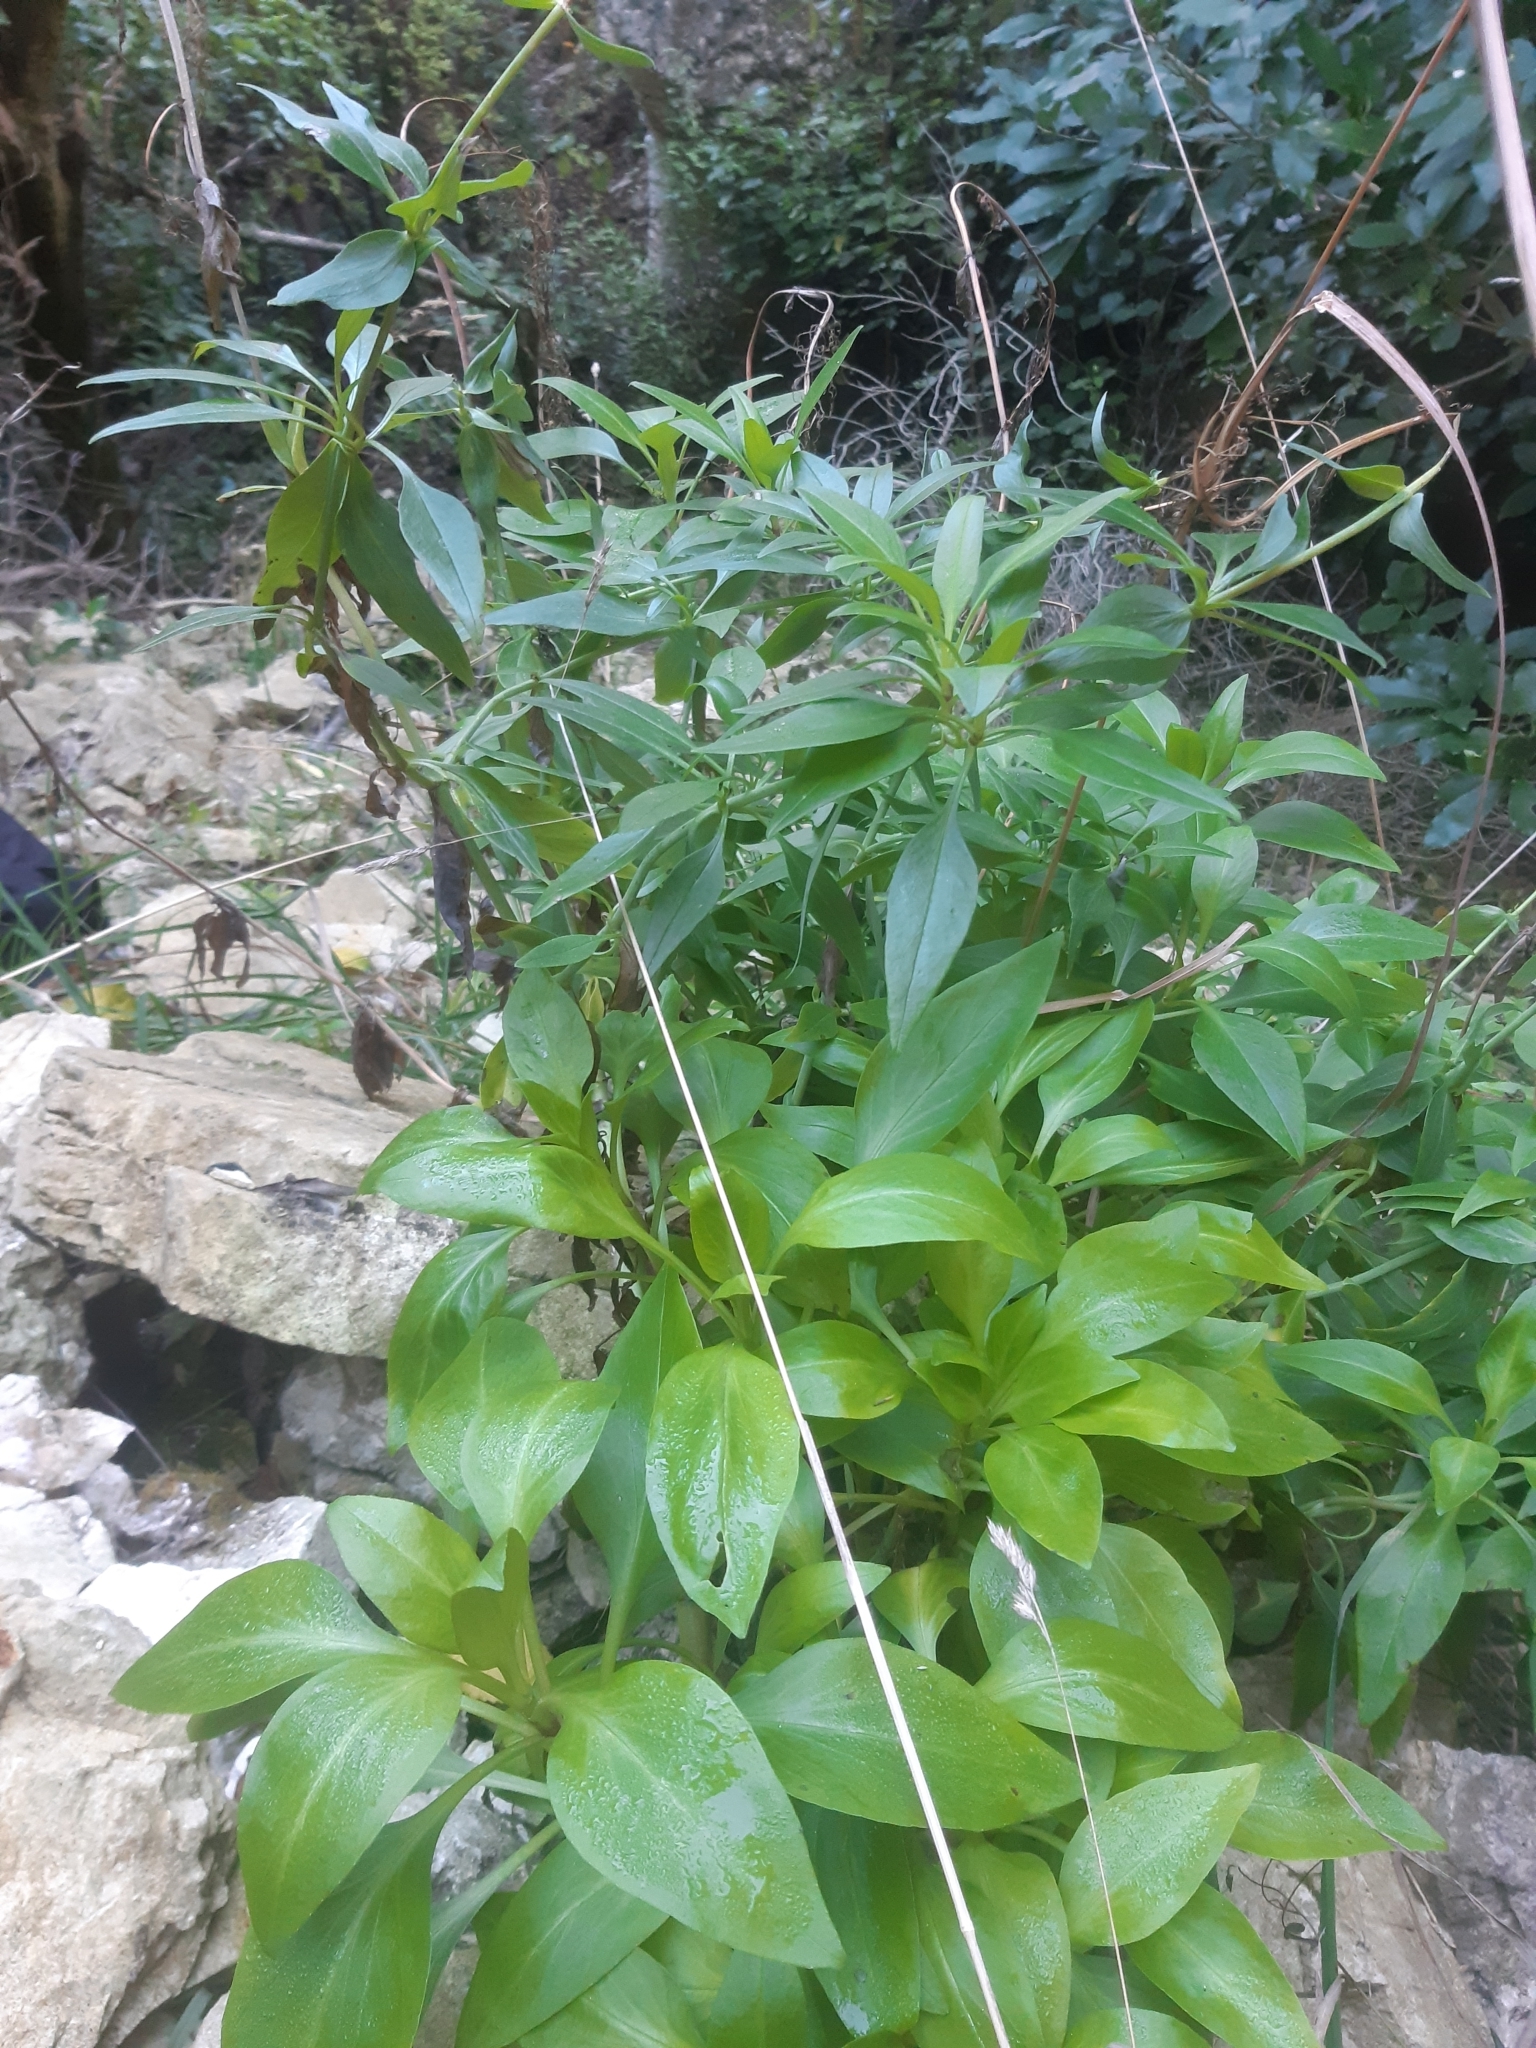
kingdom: Plantae
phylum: Tracheophyta
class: Magnoliopsida
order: Dipsacales
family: Caprifoliaceae
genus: Centranthus
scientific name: Centranthus ruber
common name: Red valerian
